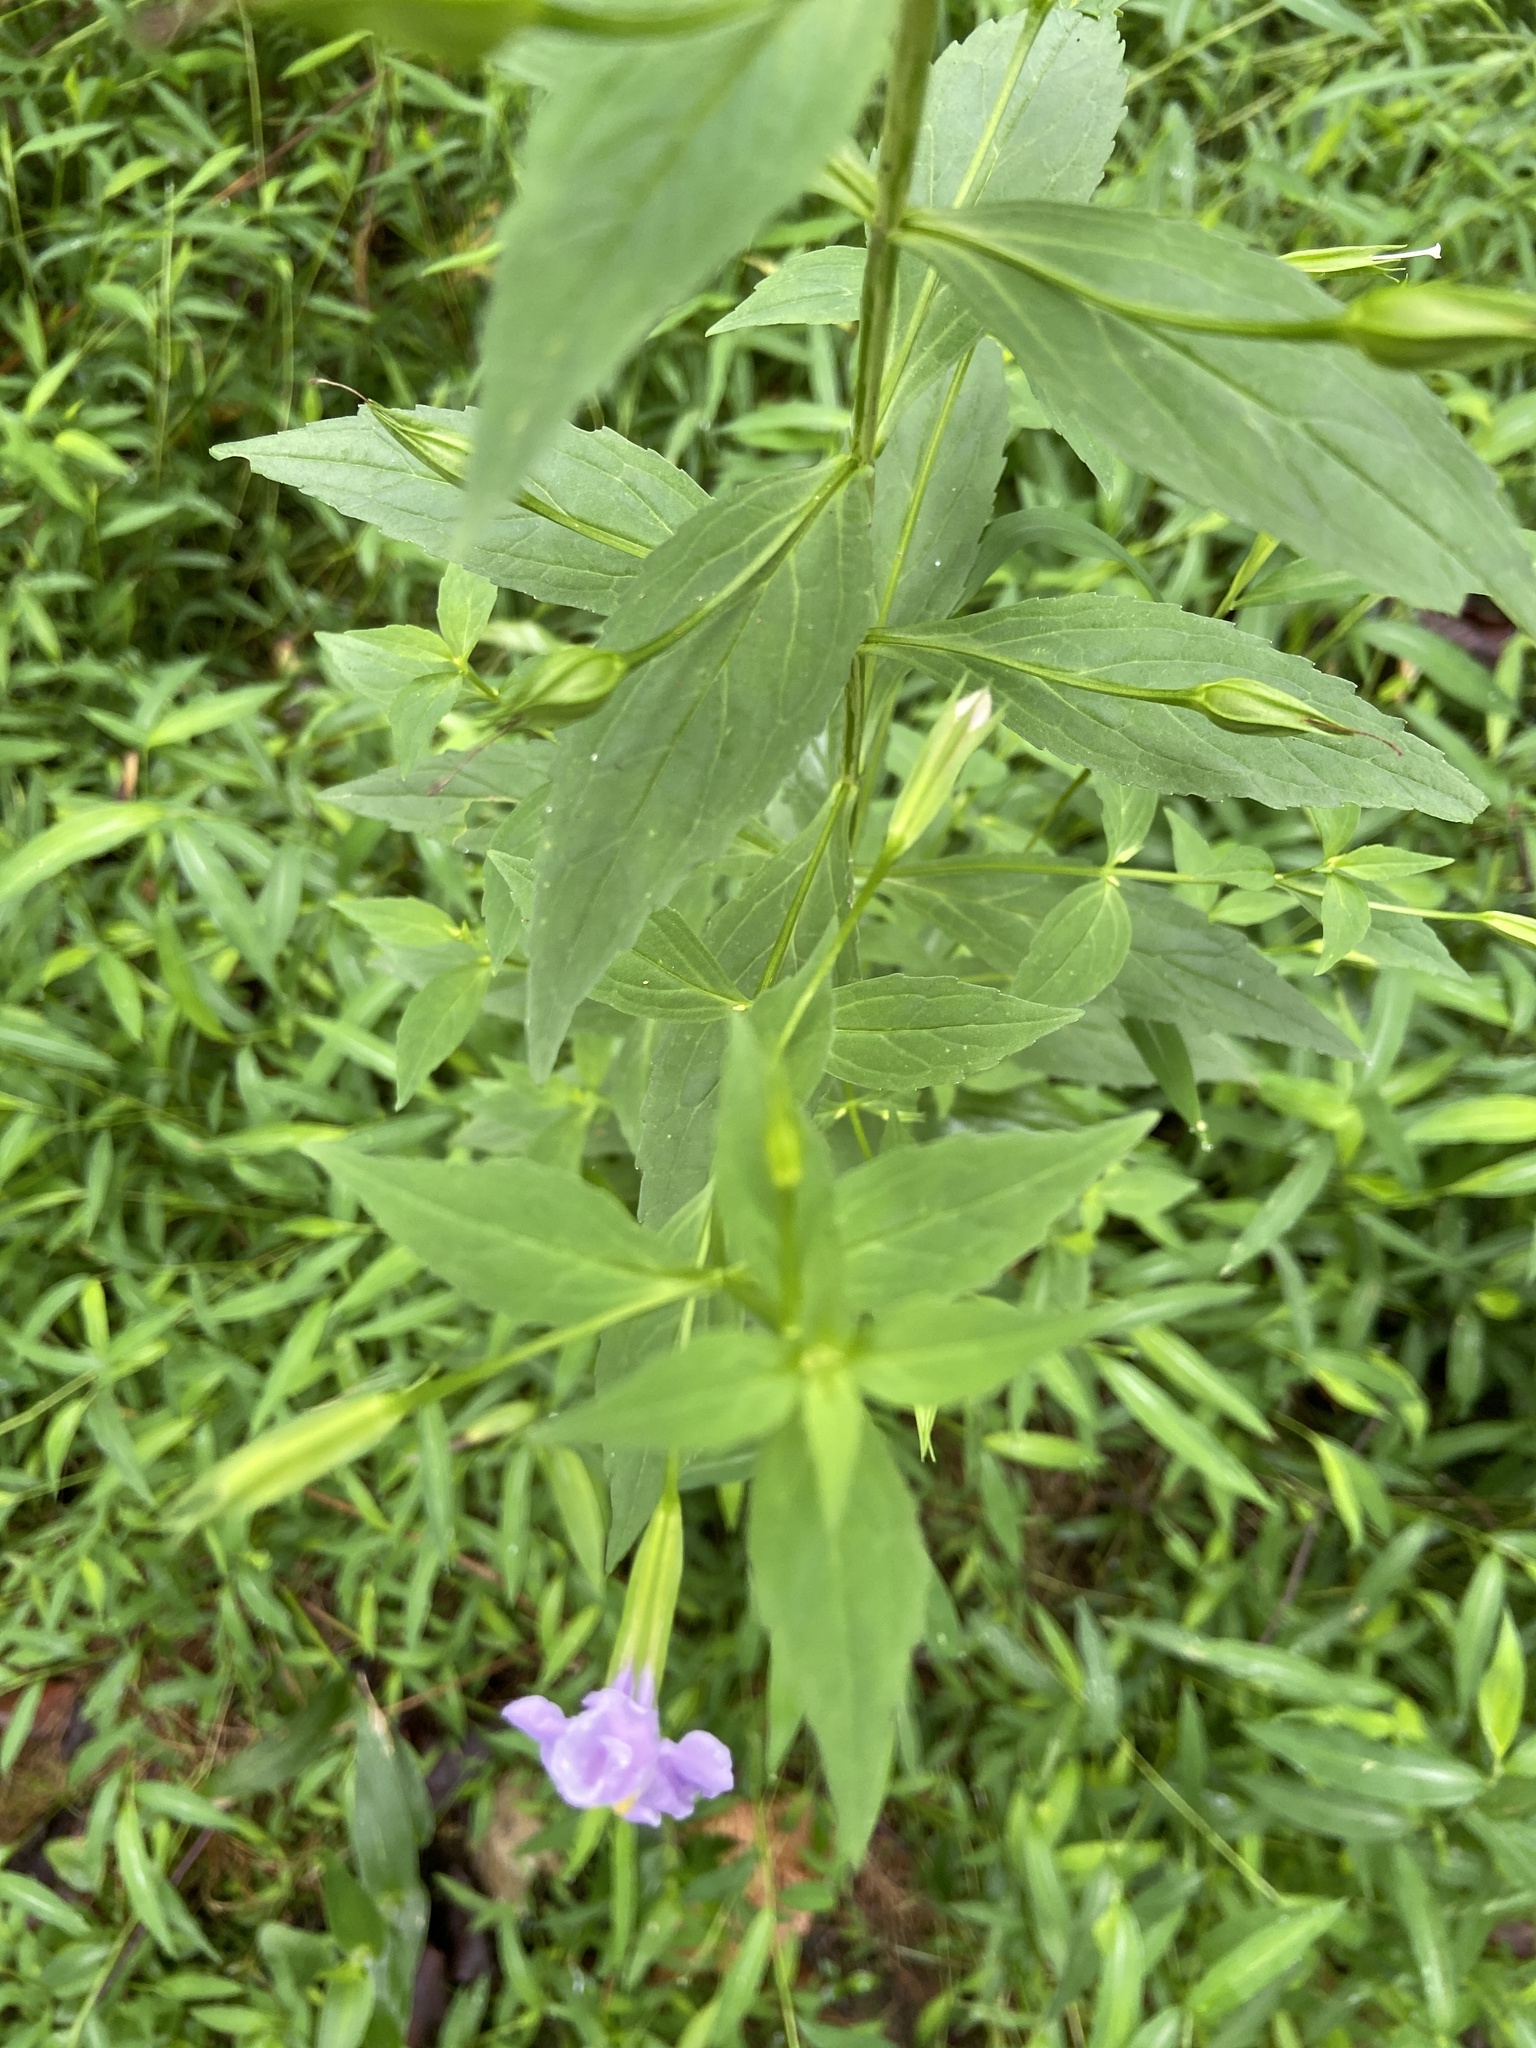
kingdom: Plantae
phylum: Tracheophyta
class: Magnoliopsida
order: Lamiales
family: Phrymaceae
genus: Mimulus
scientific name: Mimulus ringens
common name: Allegheny monkeyflower
